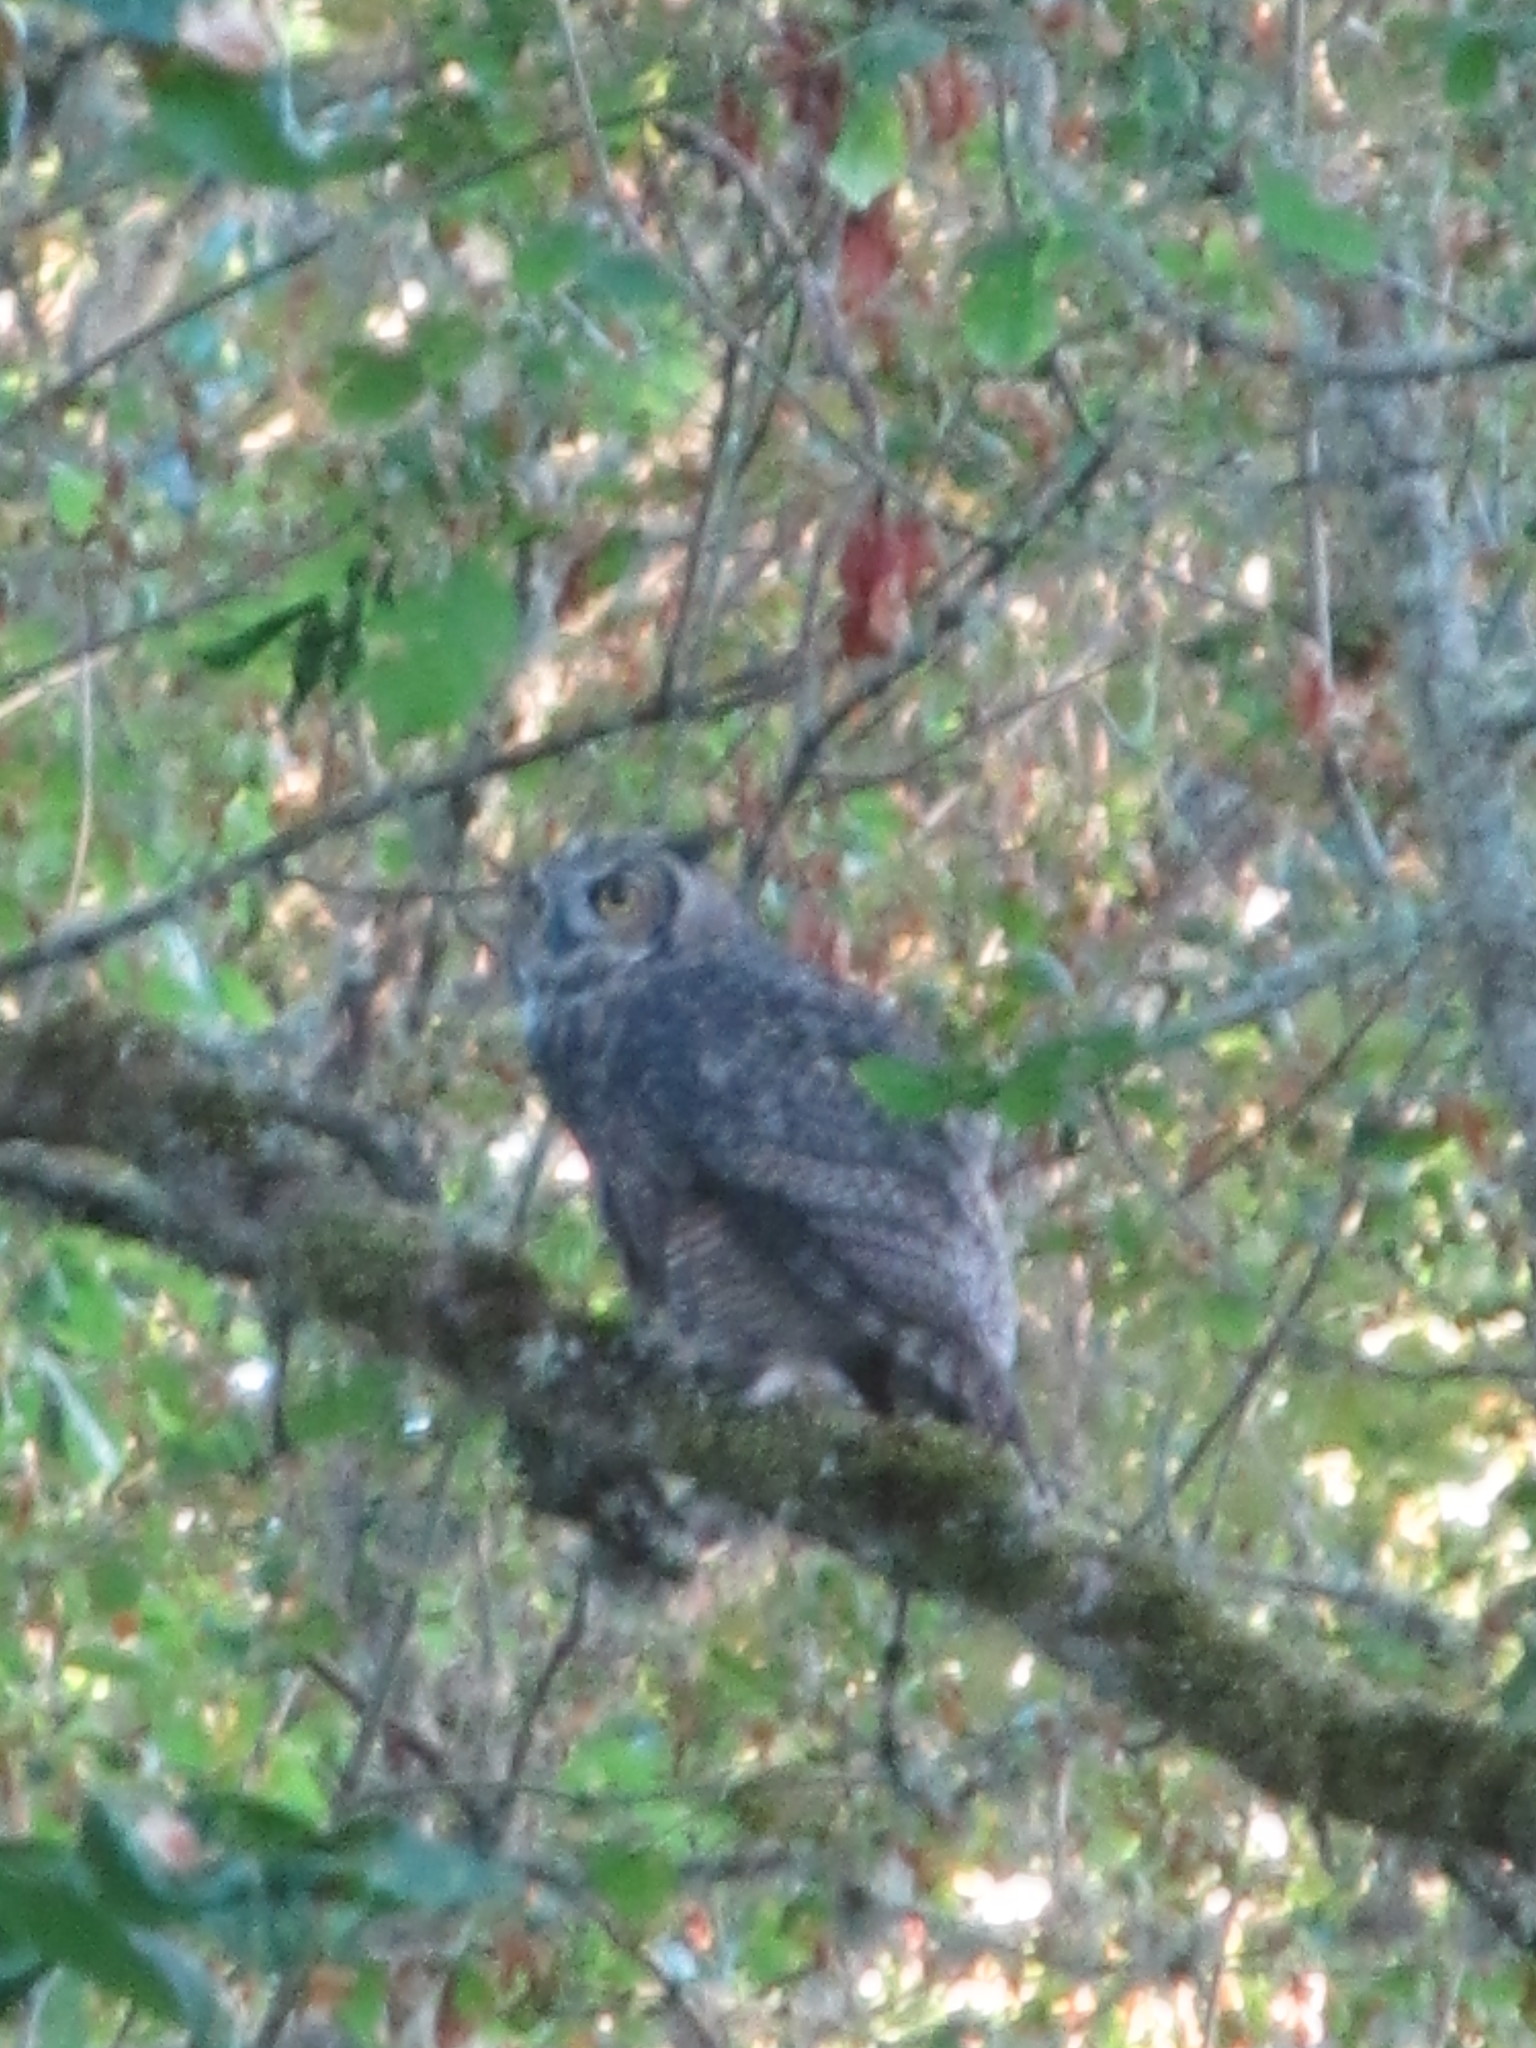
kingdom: Animalia
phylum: Chordata
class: Aves
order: Strigiformes
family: Strigidae
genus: Bubo
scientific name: Bubo virginianus
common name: Great horned owl
